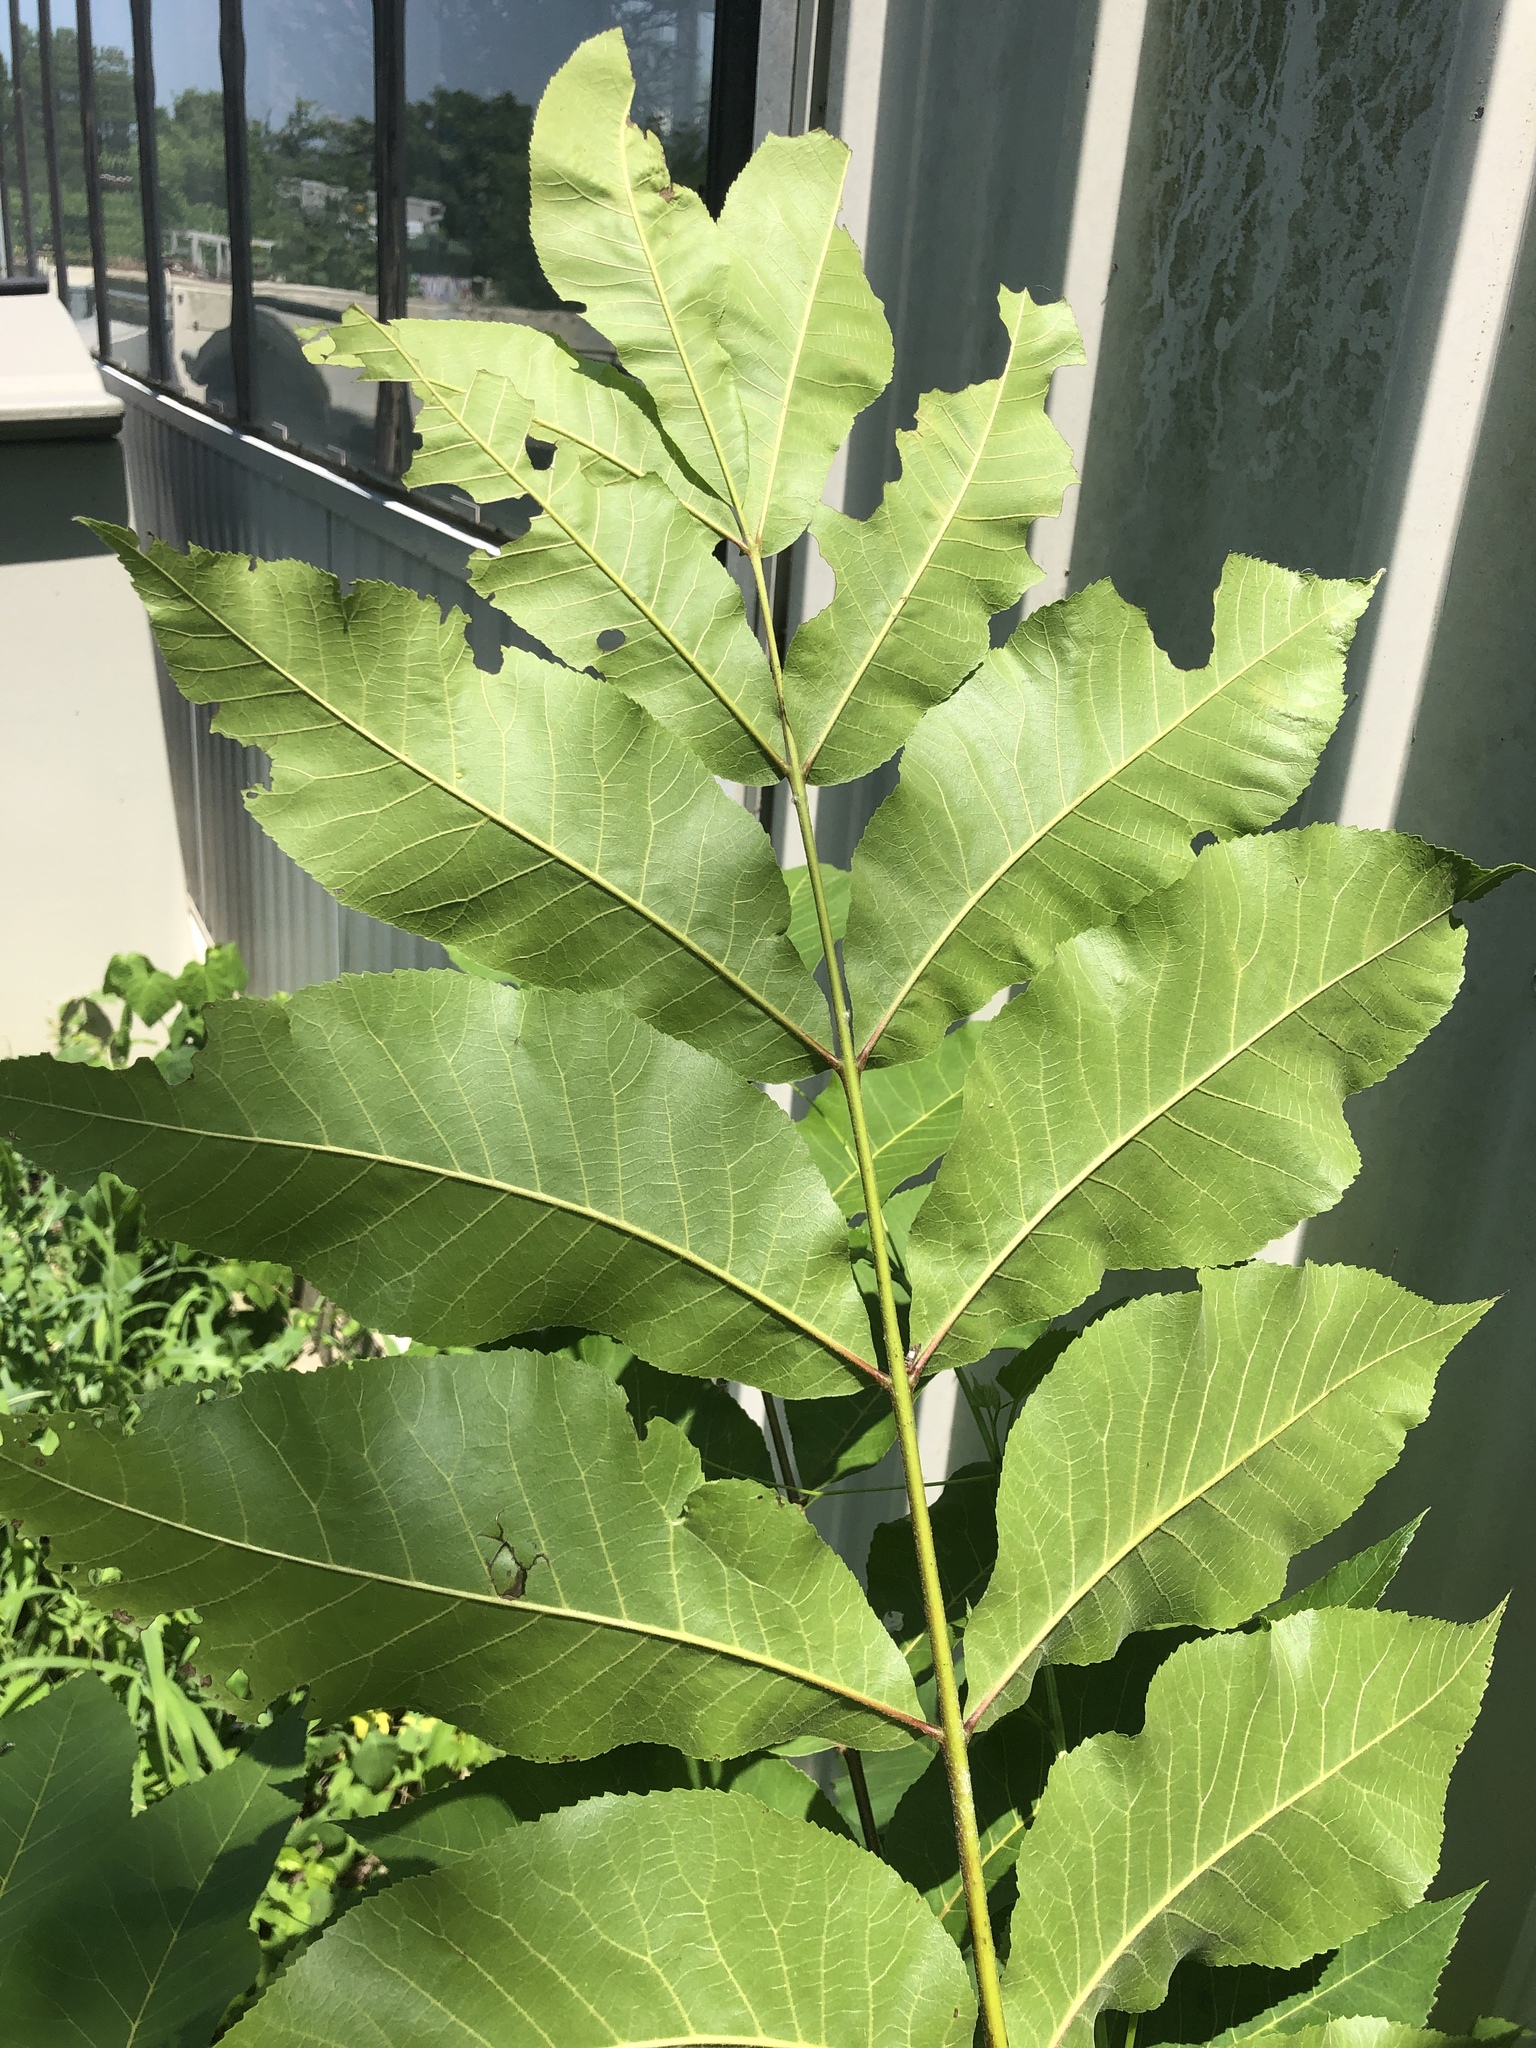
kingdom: Plantae
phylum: Tracheophyta
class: Magnoliopsida
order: Fagales
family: Juglandaceae
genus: Carya
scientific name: Carya illinoinensis
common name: Pecan
